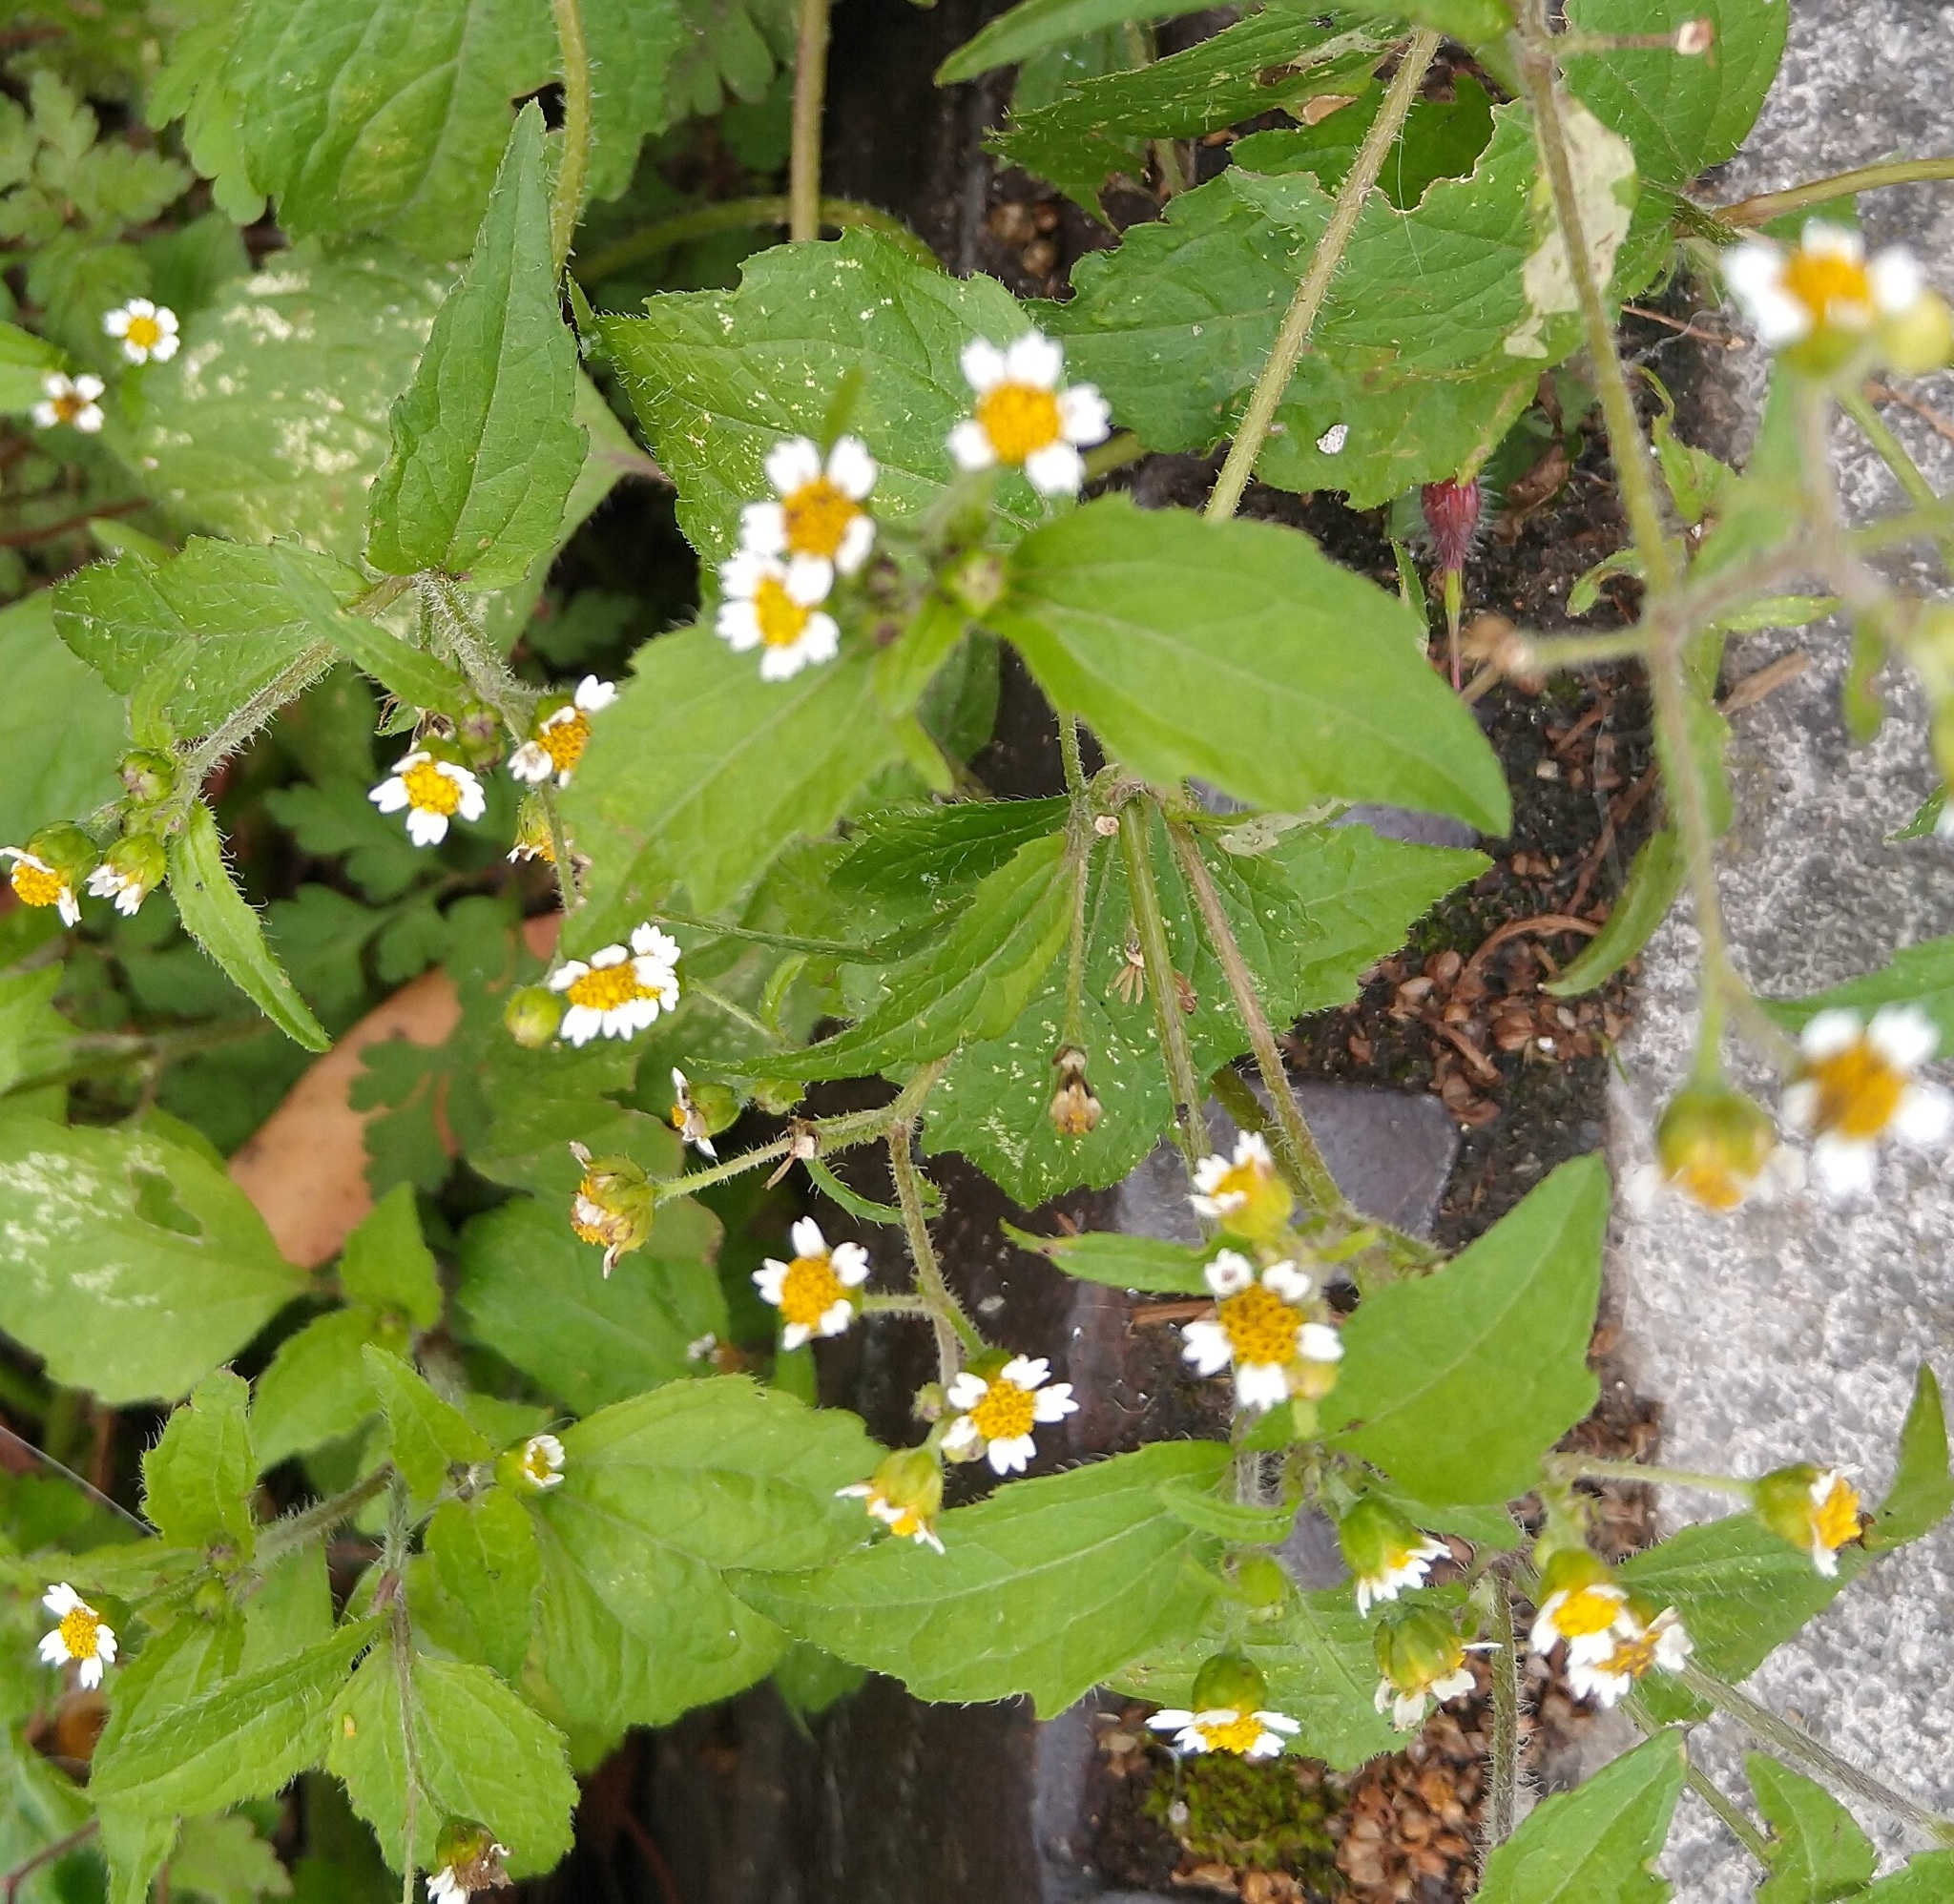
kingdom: Plantae
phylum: Tracheophyta
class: Magnoliopsida
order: Asterales
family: Asteraceae
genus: Galinsoga
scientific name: Galinsoga quadriradiata
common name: Shaggy soldier
